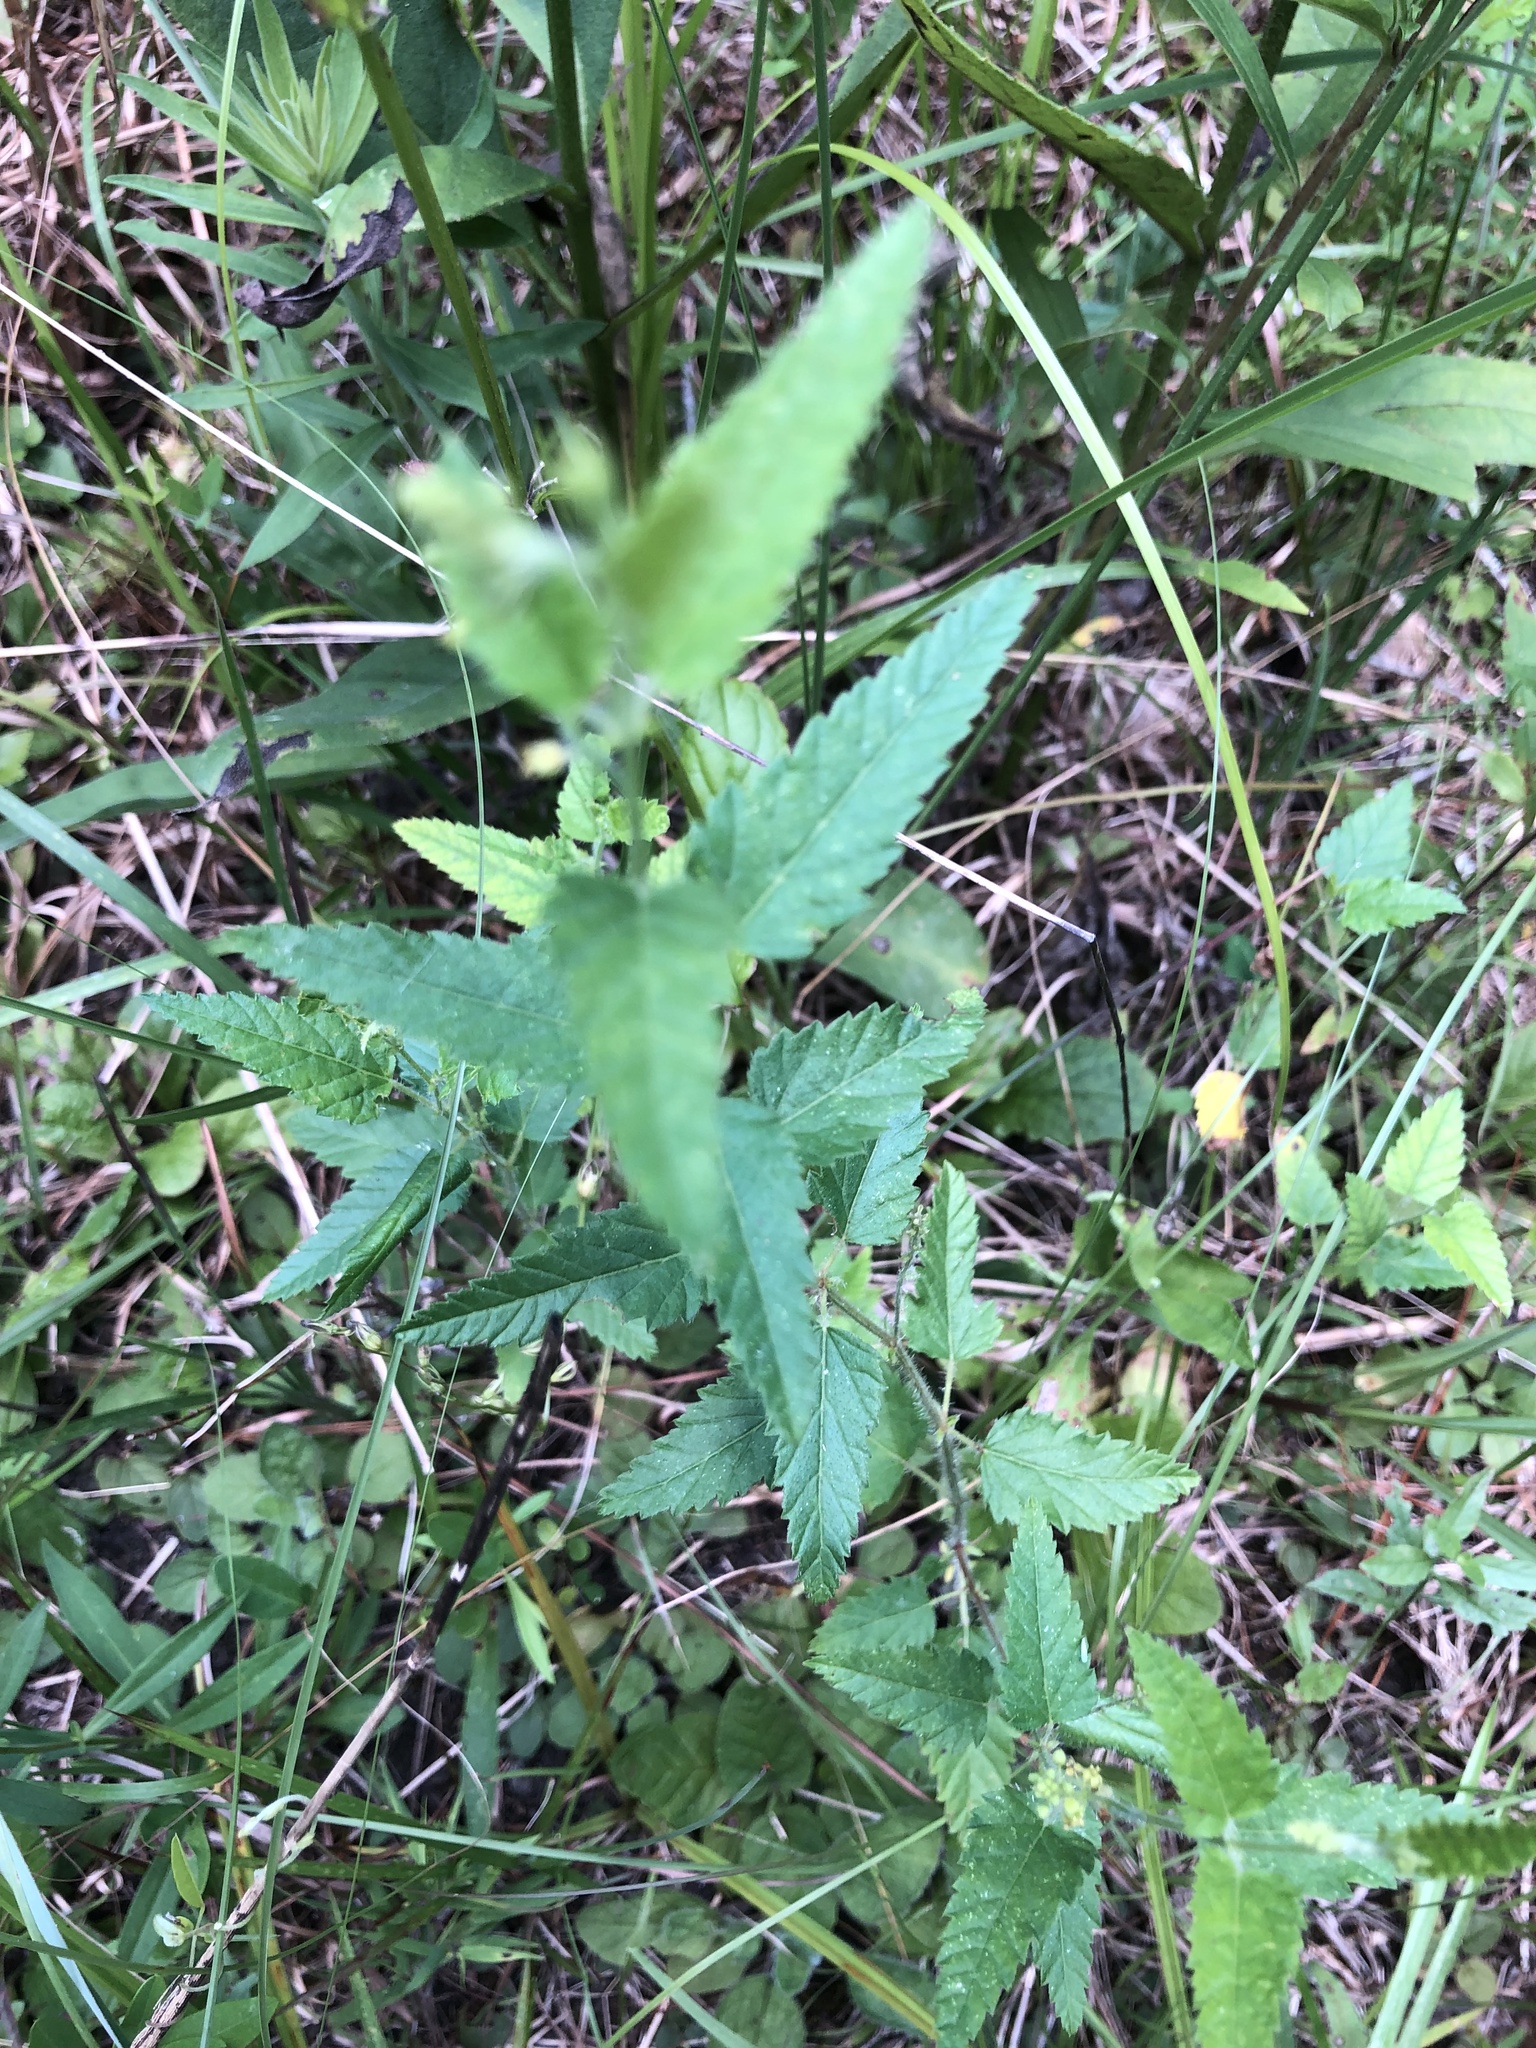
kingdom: Plantae
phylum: Tracheophyta
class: Magnoliopsida
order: Malpighiales
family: Euphorbiaceae
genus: Tragia
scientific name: Tragia urticifolia
